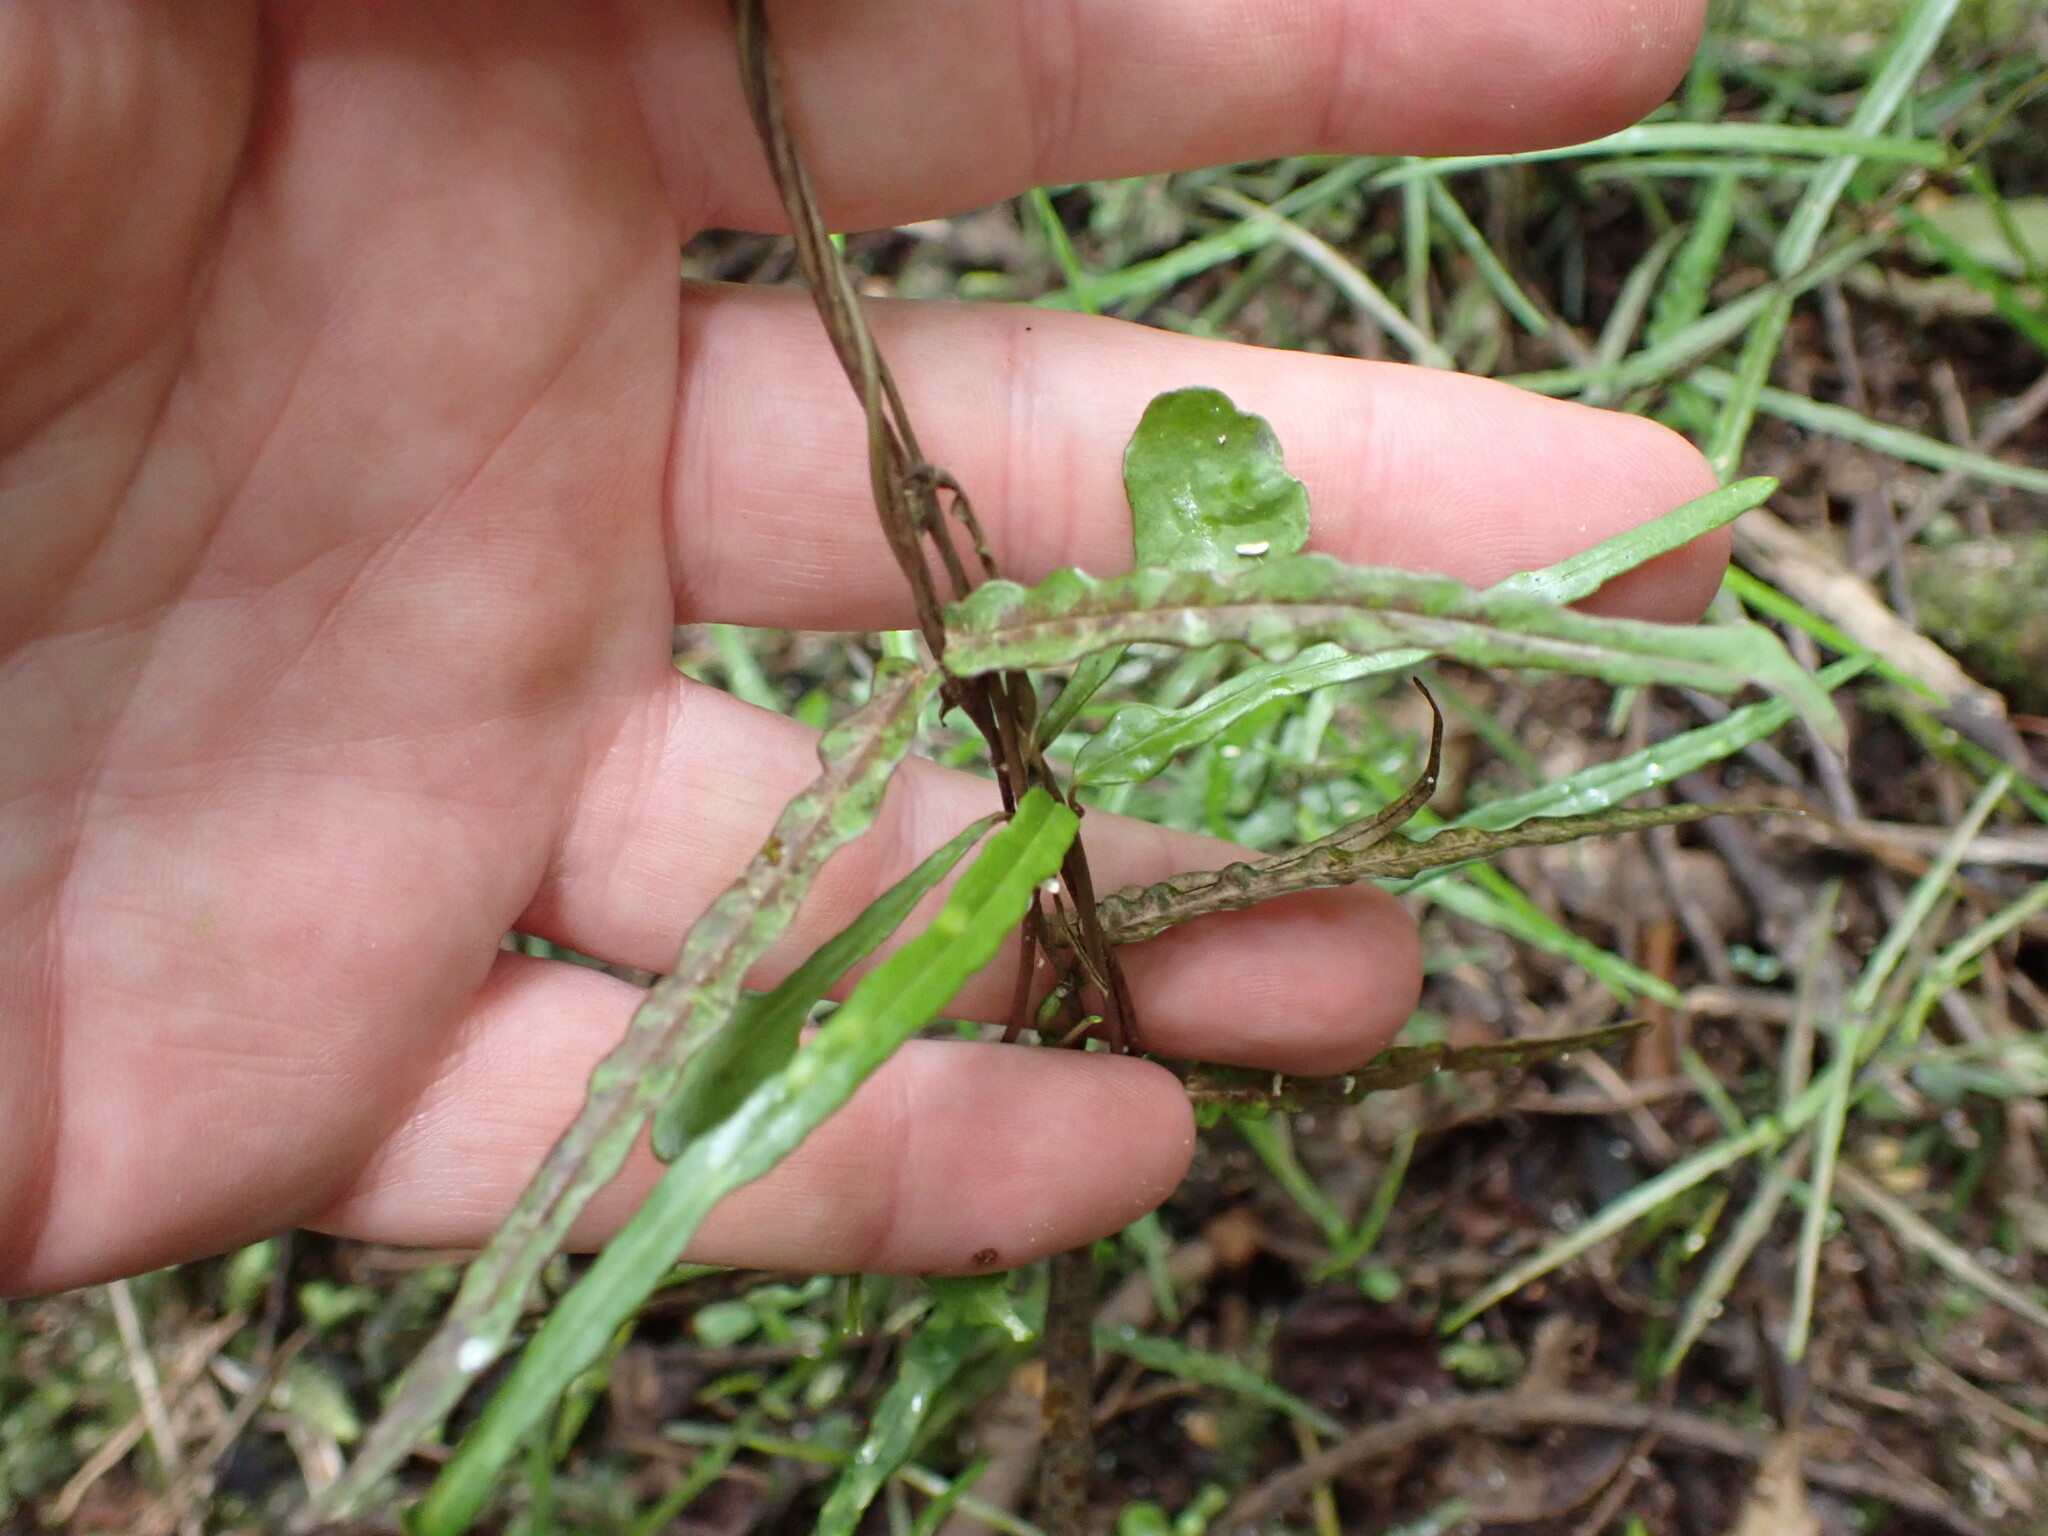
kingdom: Plantae
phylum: Tracheophyta
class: Magnoliopsida
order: Gentianales
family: Apocynaceae
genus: Parsonsia
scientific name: Parsonsia heterophylla
